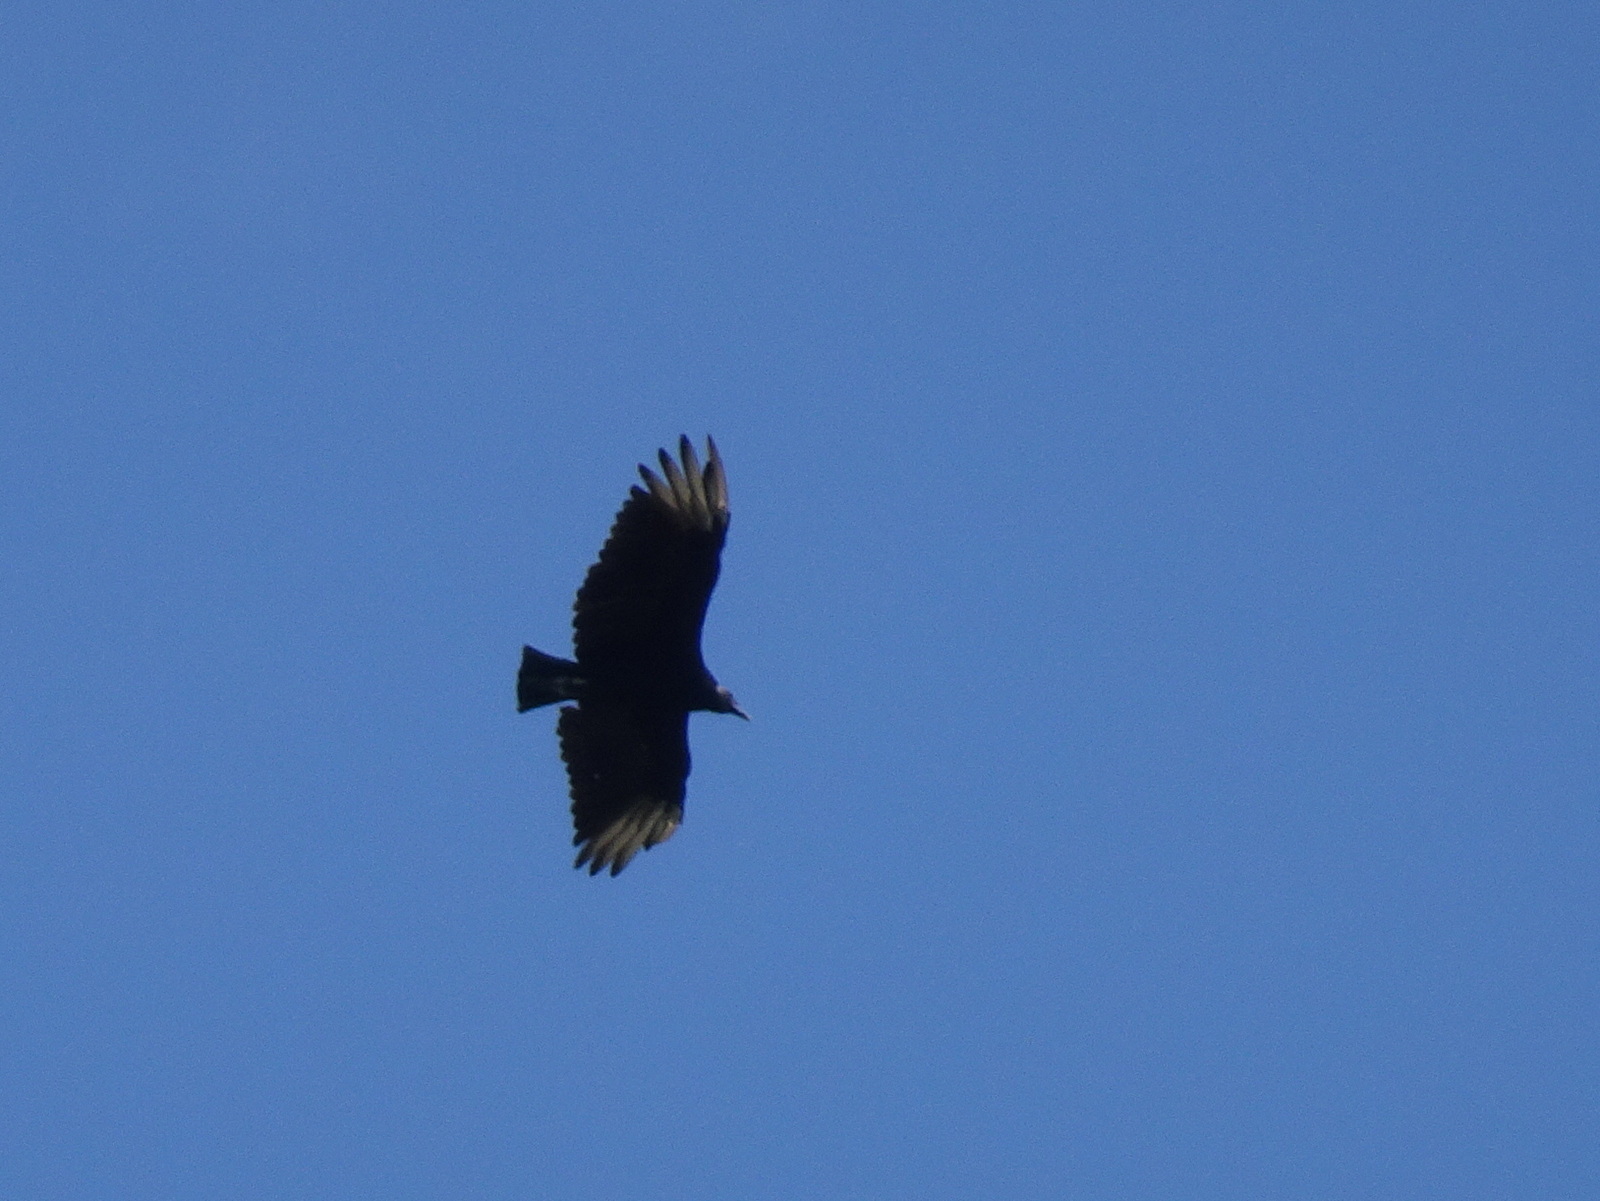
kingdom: Animalia
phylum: Chordata
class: Aves
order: Accipitriformes
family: Cathartidae
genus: Coragyps
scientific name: Coragyps atratus
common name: Black vulture
